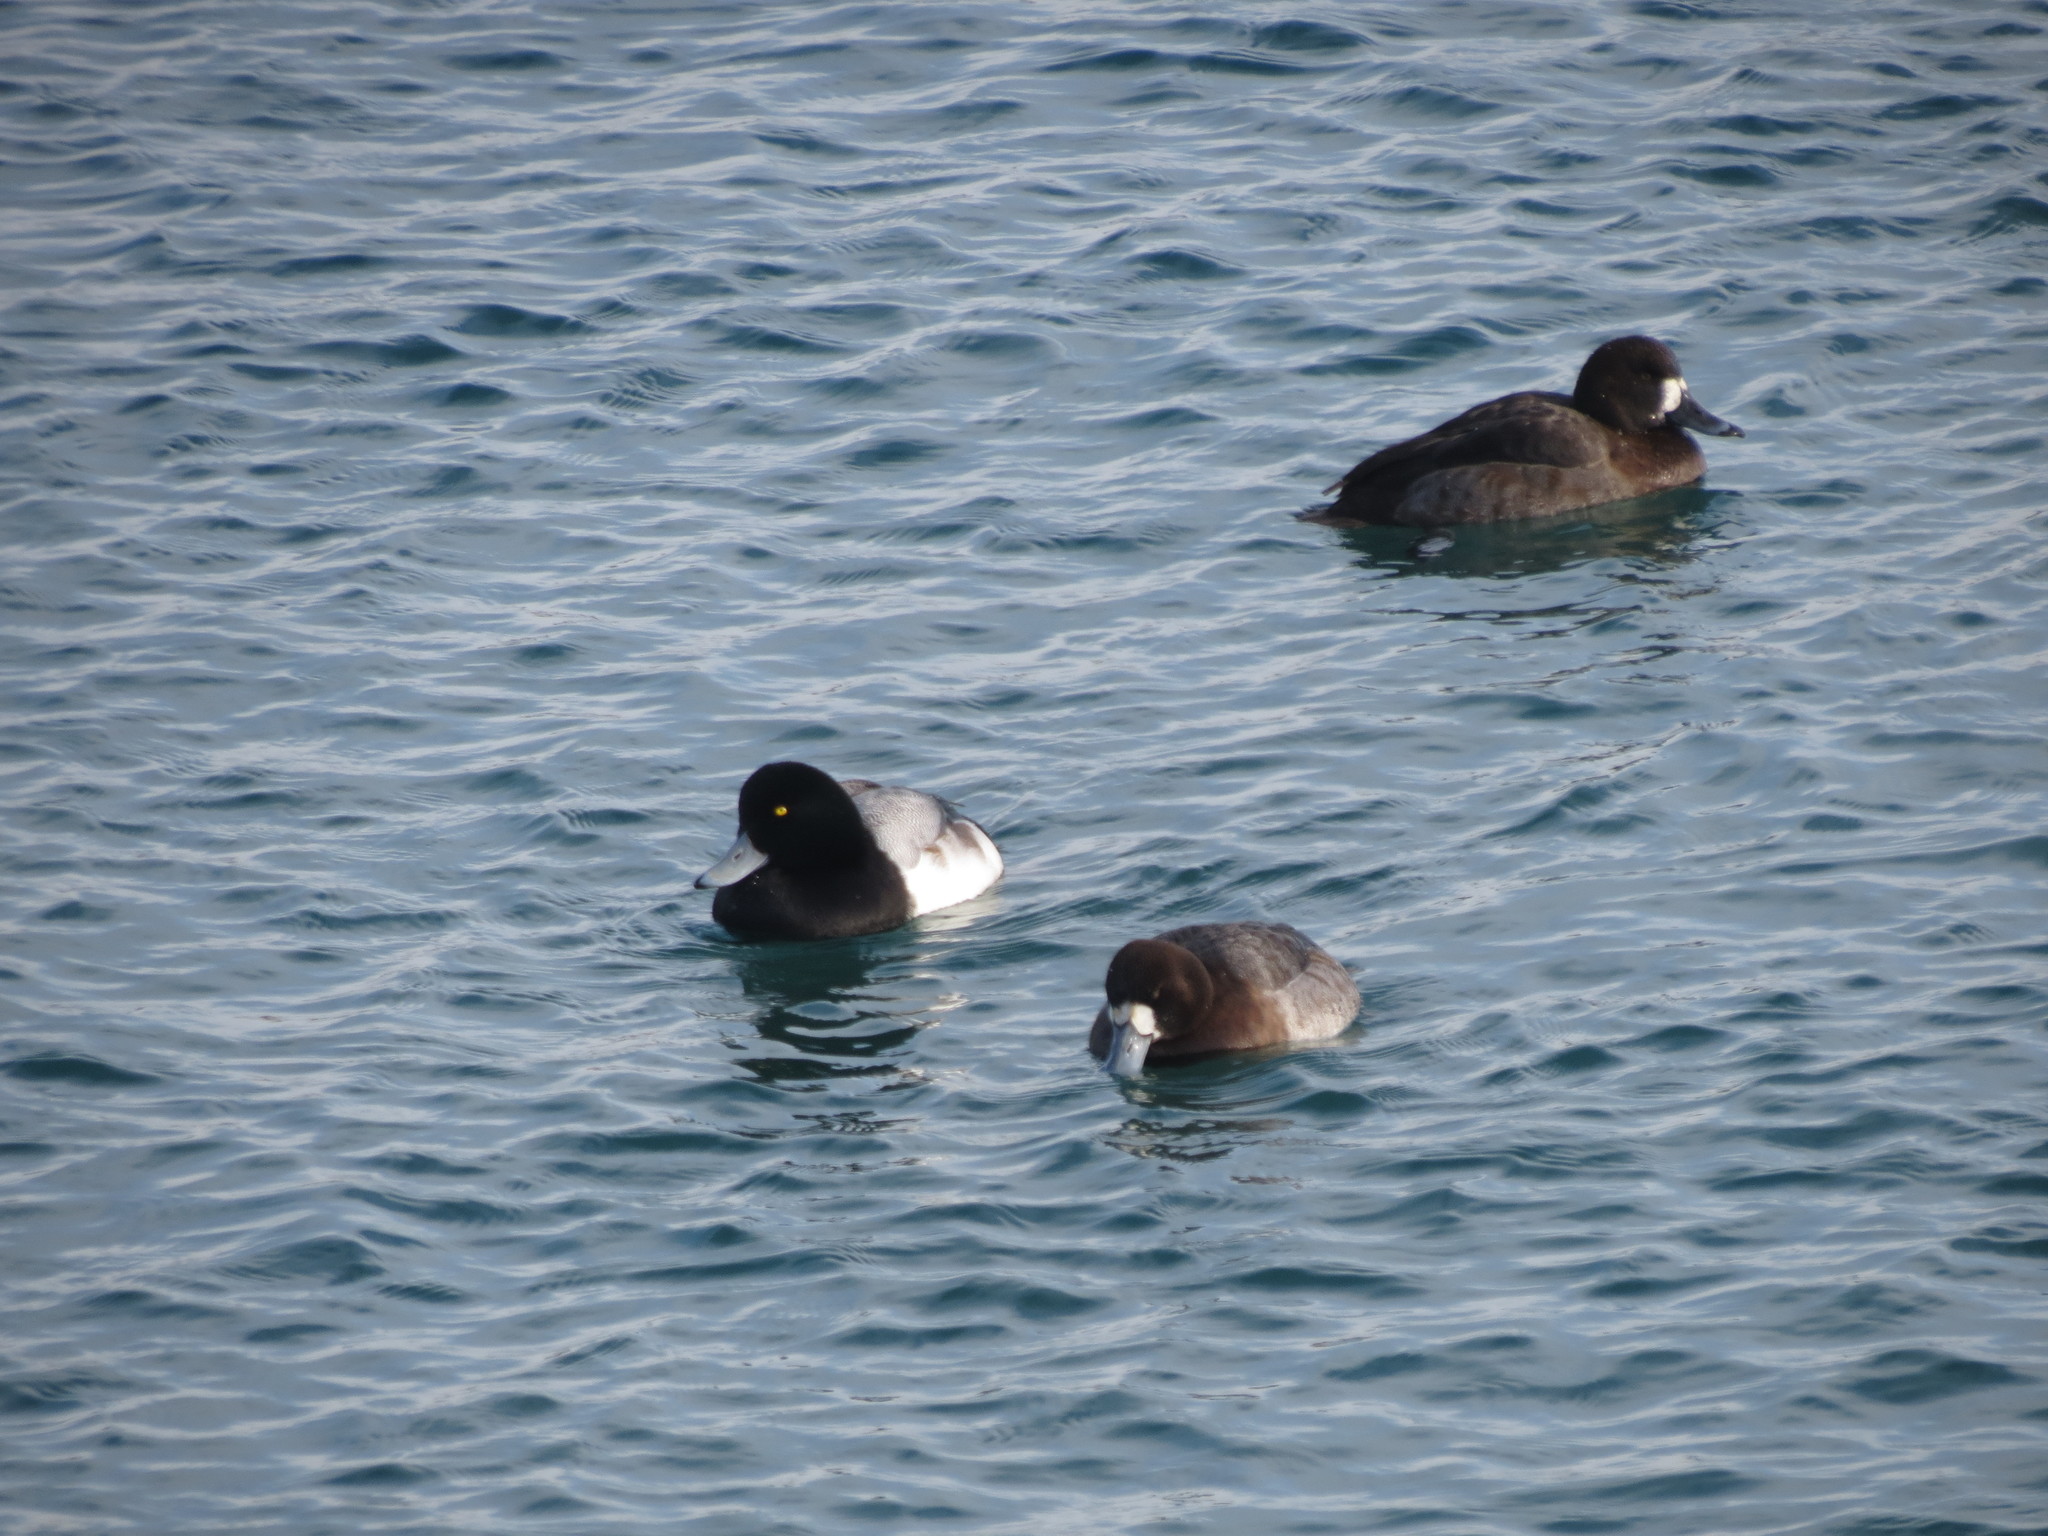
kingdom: Animalia
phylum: Chordata
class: Aves
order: Anseriformes
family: Anatidae
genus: Aythya
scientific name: Aythya marila
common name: Greater scaup
